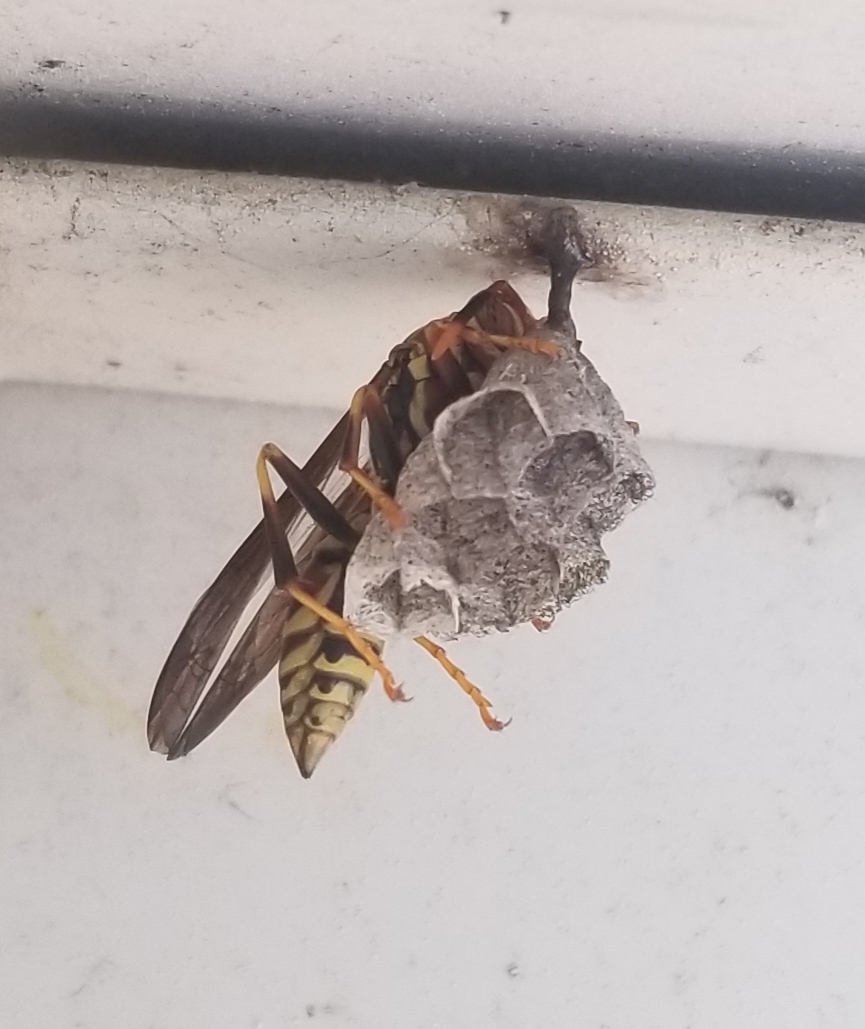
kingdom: Animalia
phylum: Arthropoda
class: Insecta
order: Hymenoptera
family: Eumenidae
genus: Polistes
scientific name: Polistes exclamans
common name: Paper wasp
